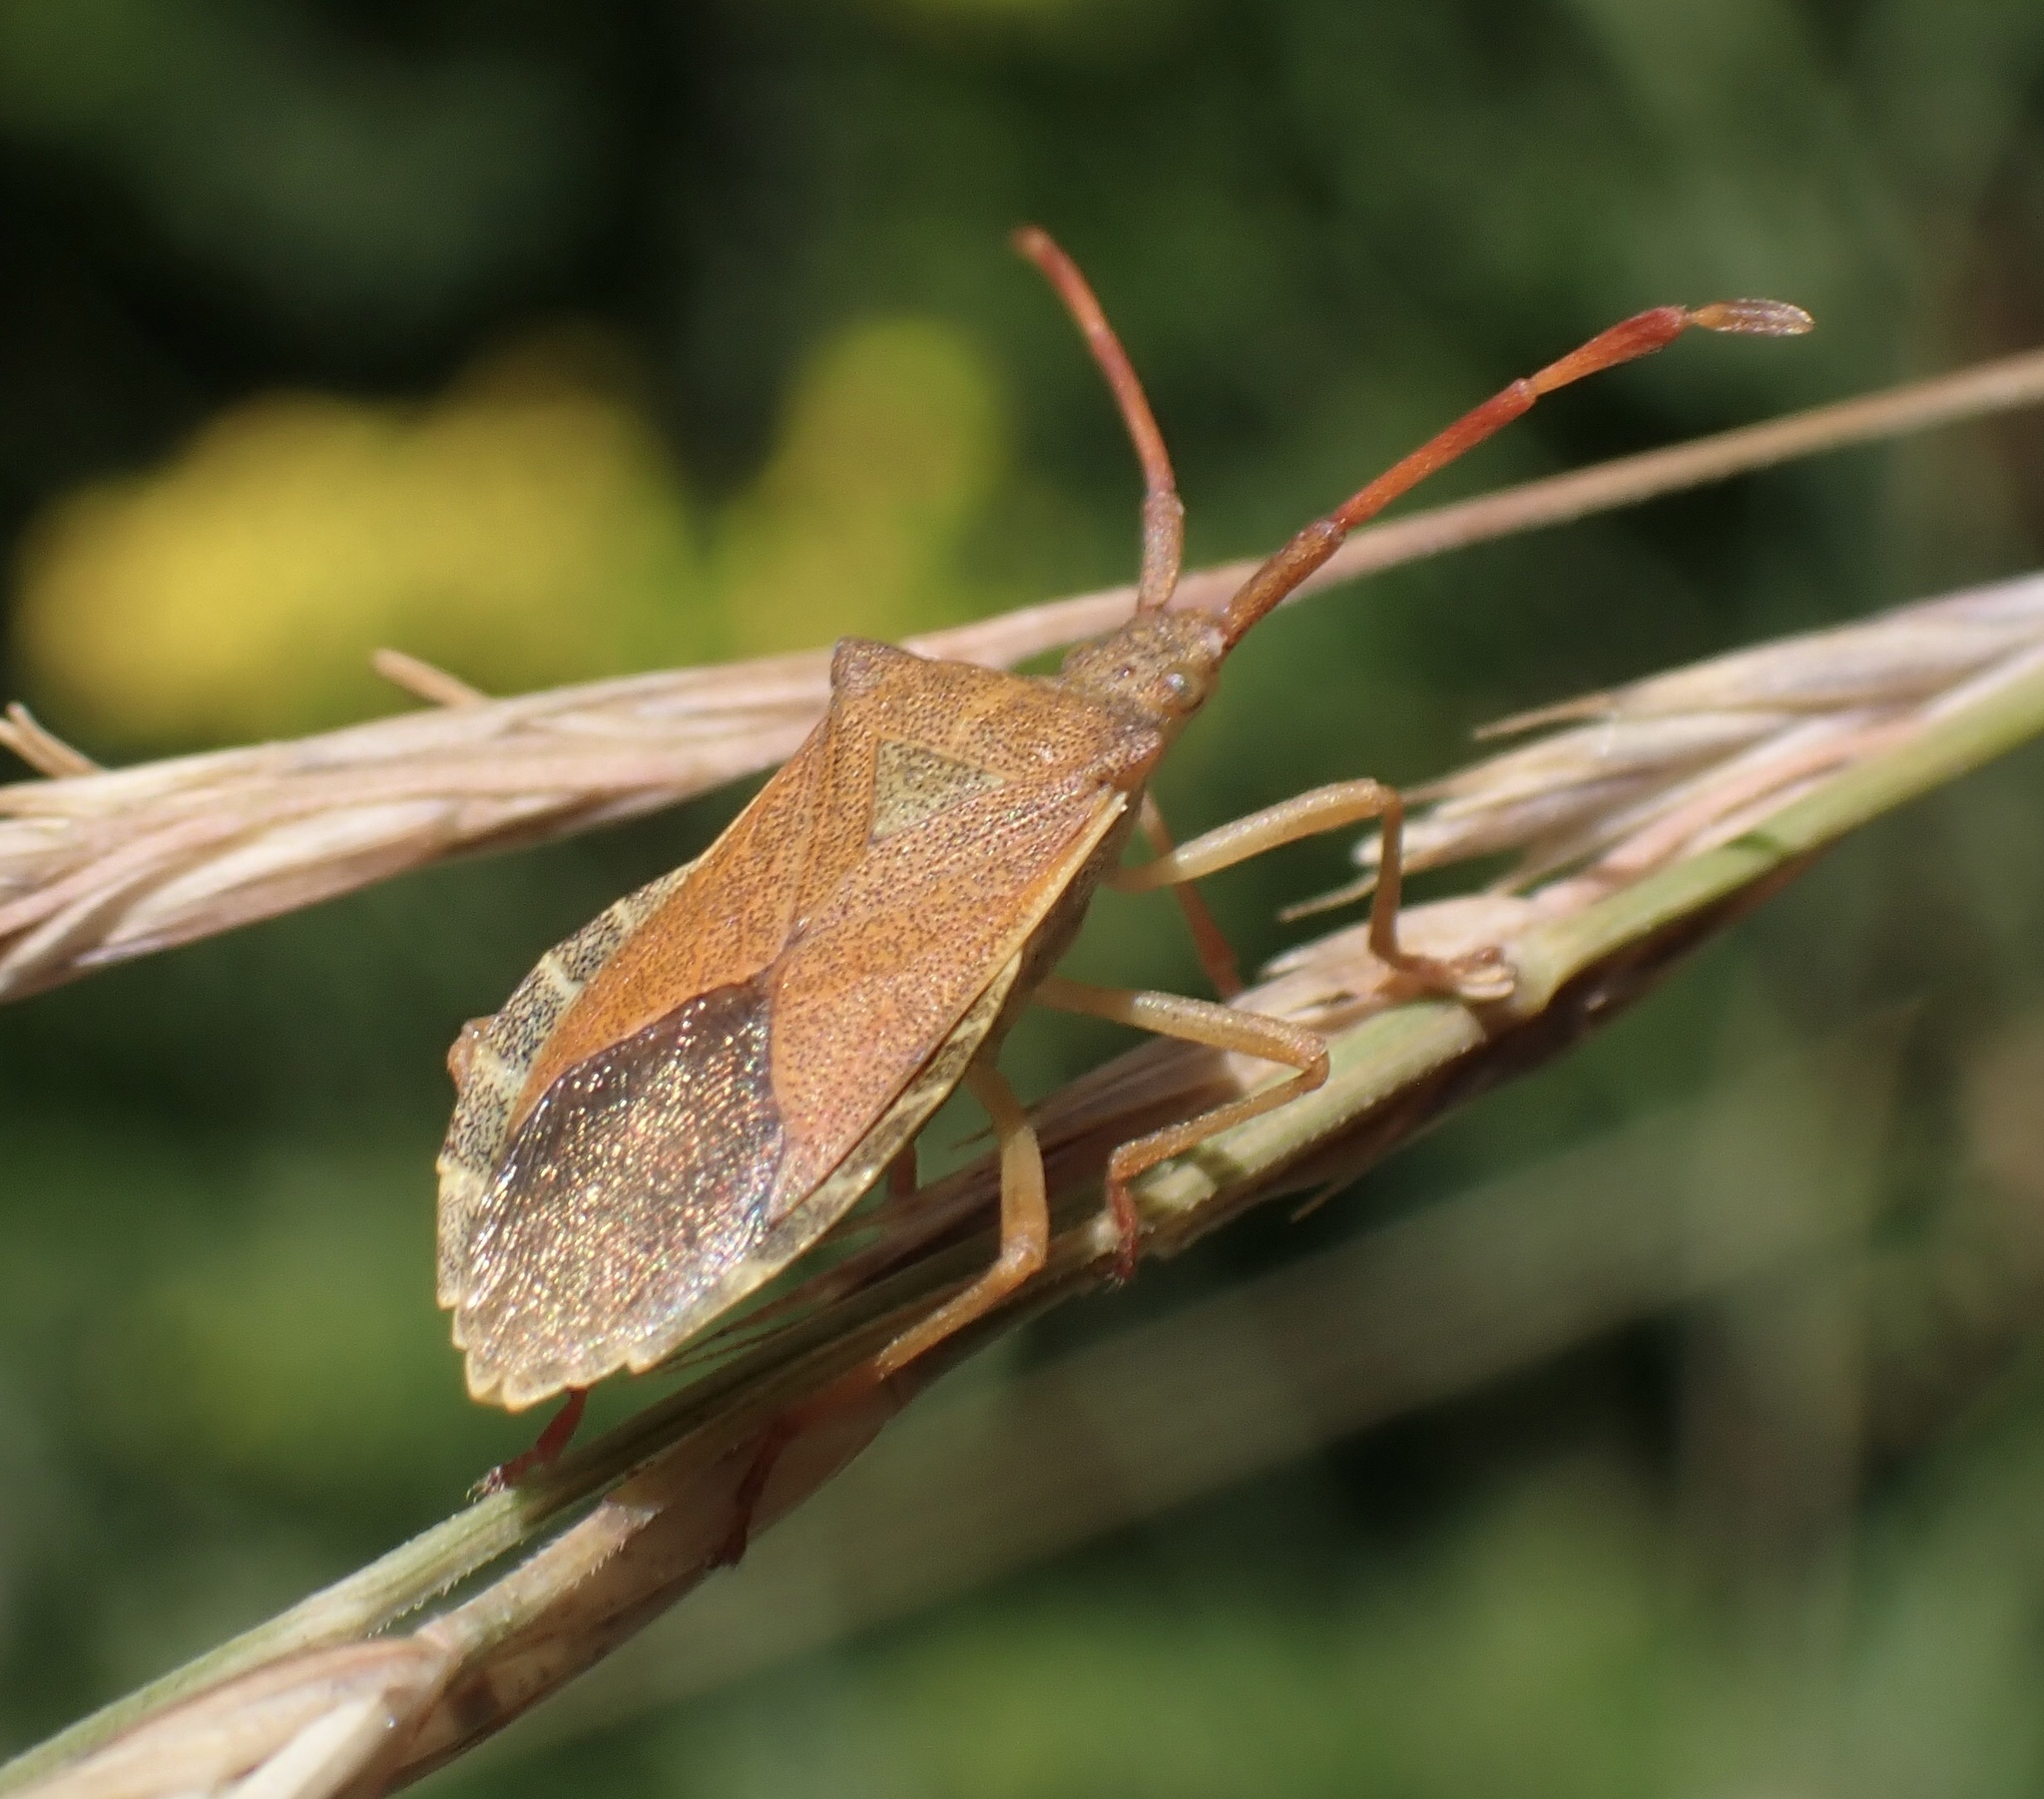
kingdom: Animalia
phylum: Arthropoda
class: Insecta
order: Hemiptera
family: Coreidae
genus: Gonocerus
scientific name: Gonocerus acuteangulatus
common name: Box bug
